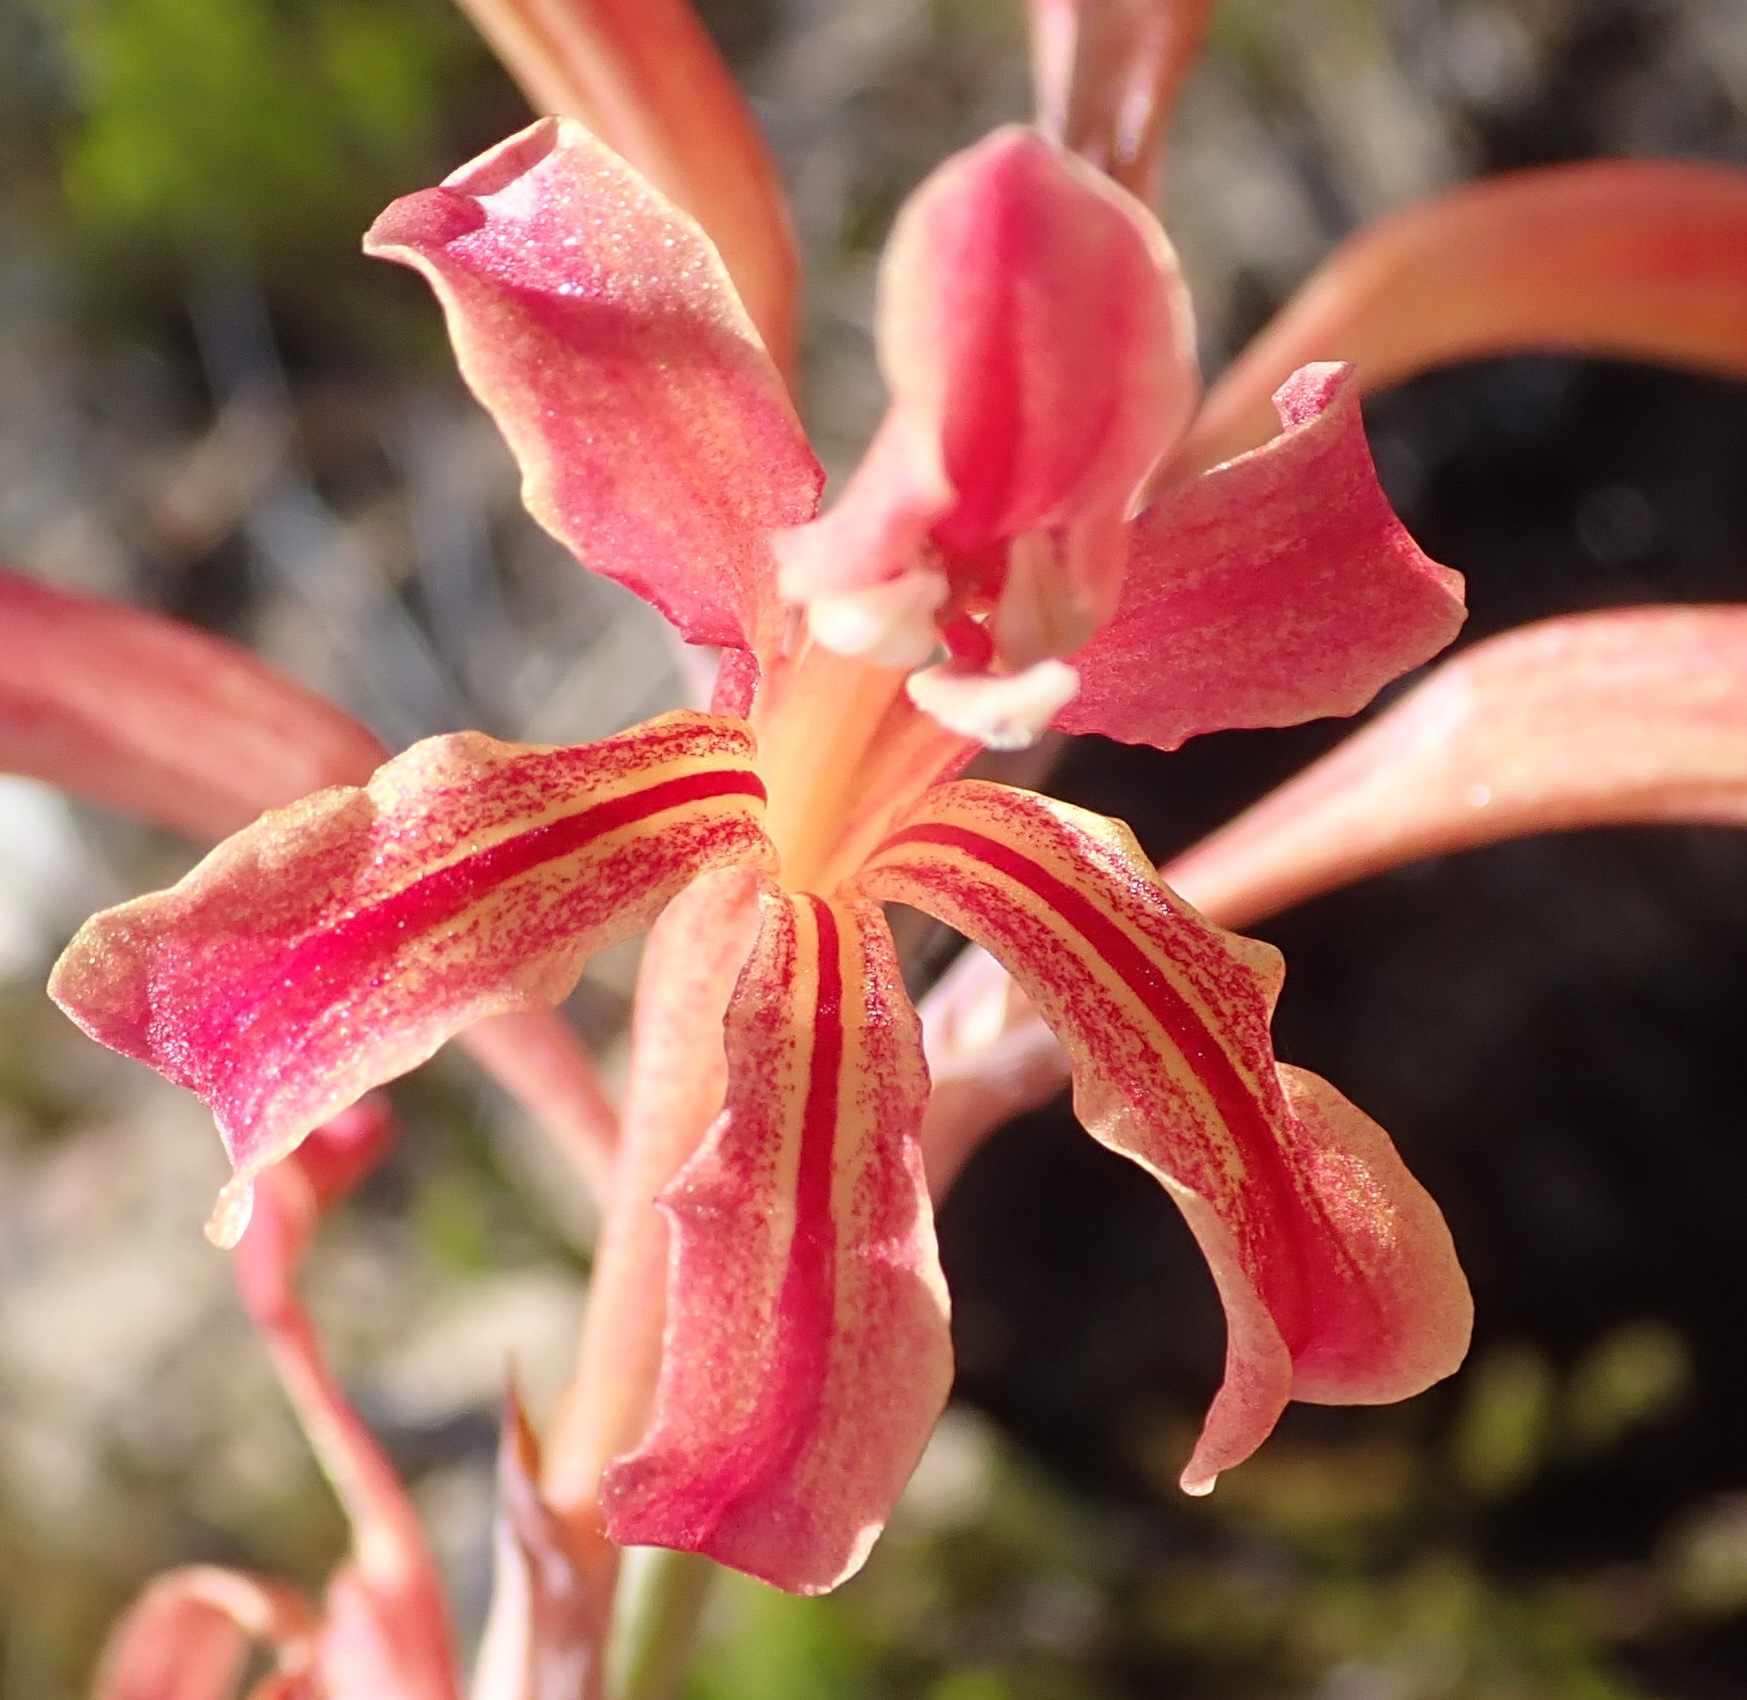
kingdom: Plantae
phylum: Tracheophyta
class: Liliopsida
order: Asparagales
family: Iridaceae
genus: Tritoniopsis
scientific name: Tritoniopsis antholyza
